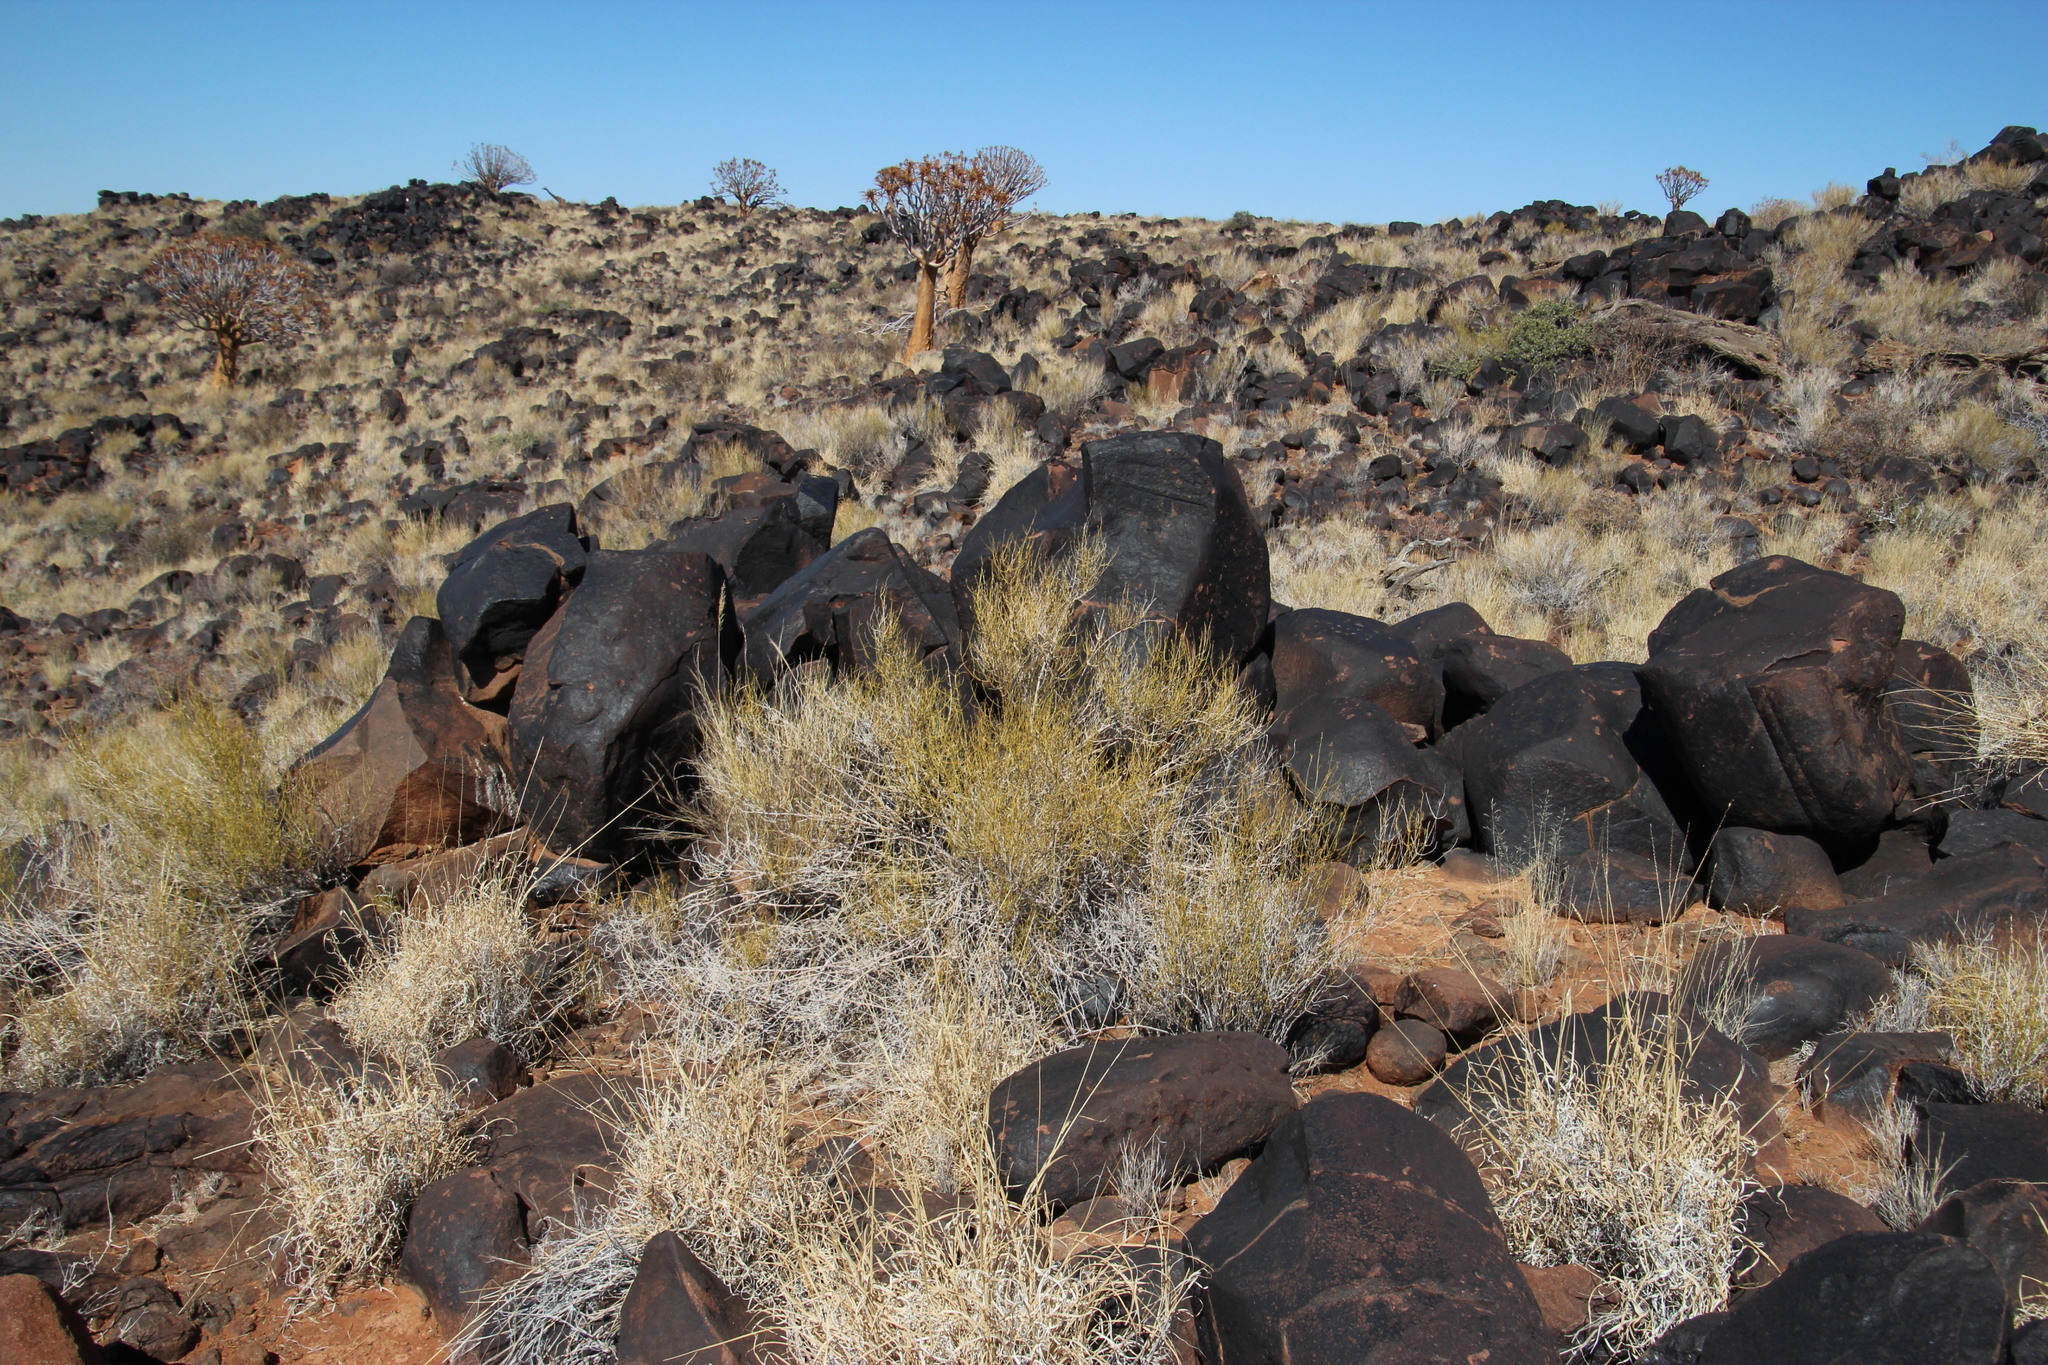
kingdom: Plantae
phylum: Tracheophyta
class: Magnoliopsida
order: Sapindales
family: Rutaceae
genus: Thamnosma
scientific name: Thamnosma africana
